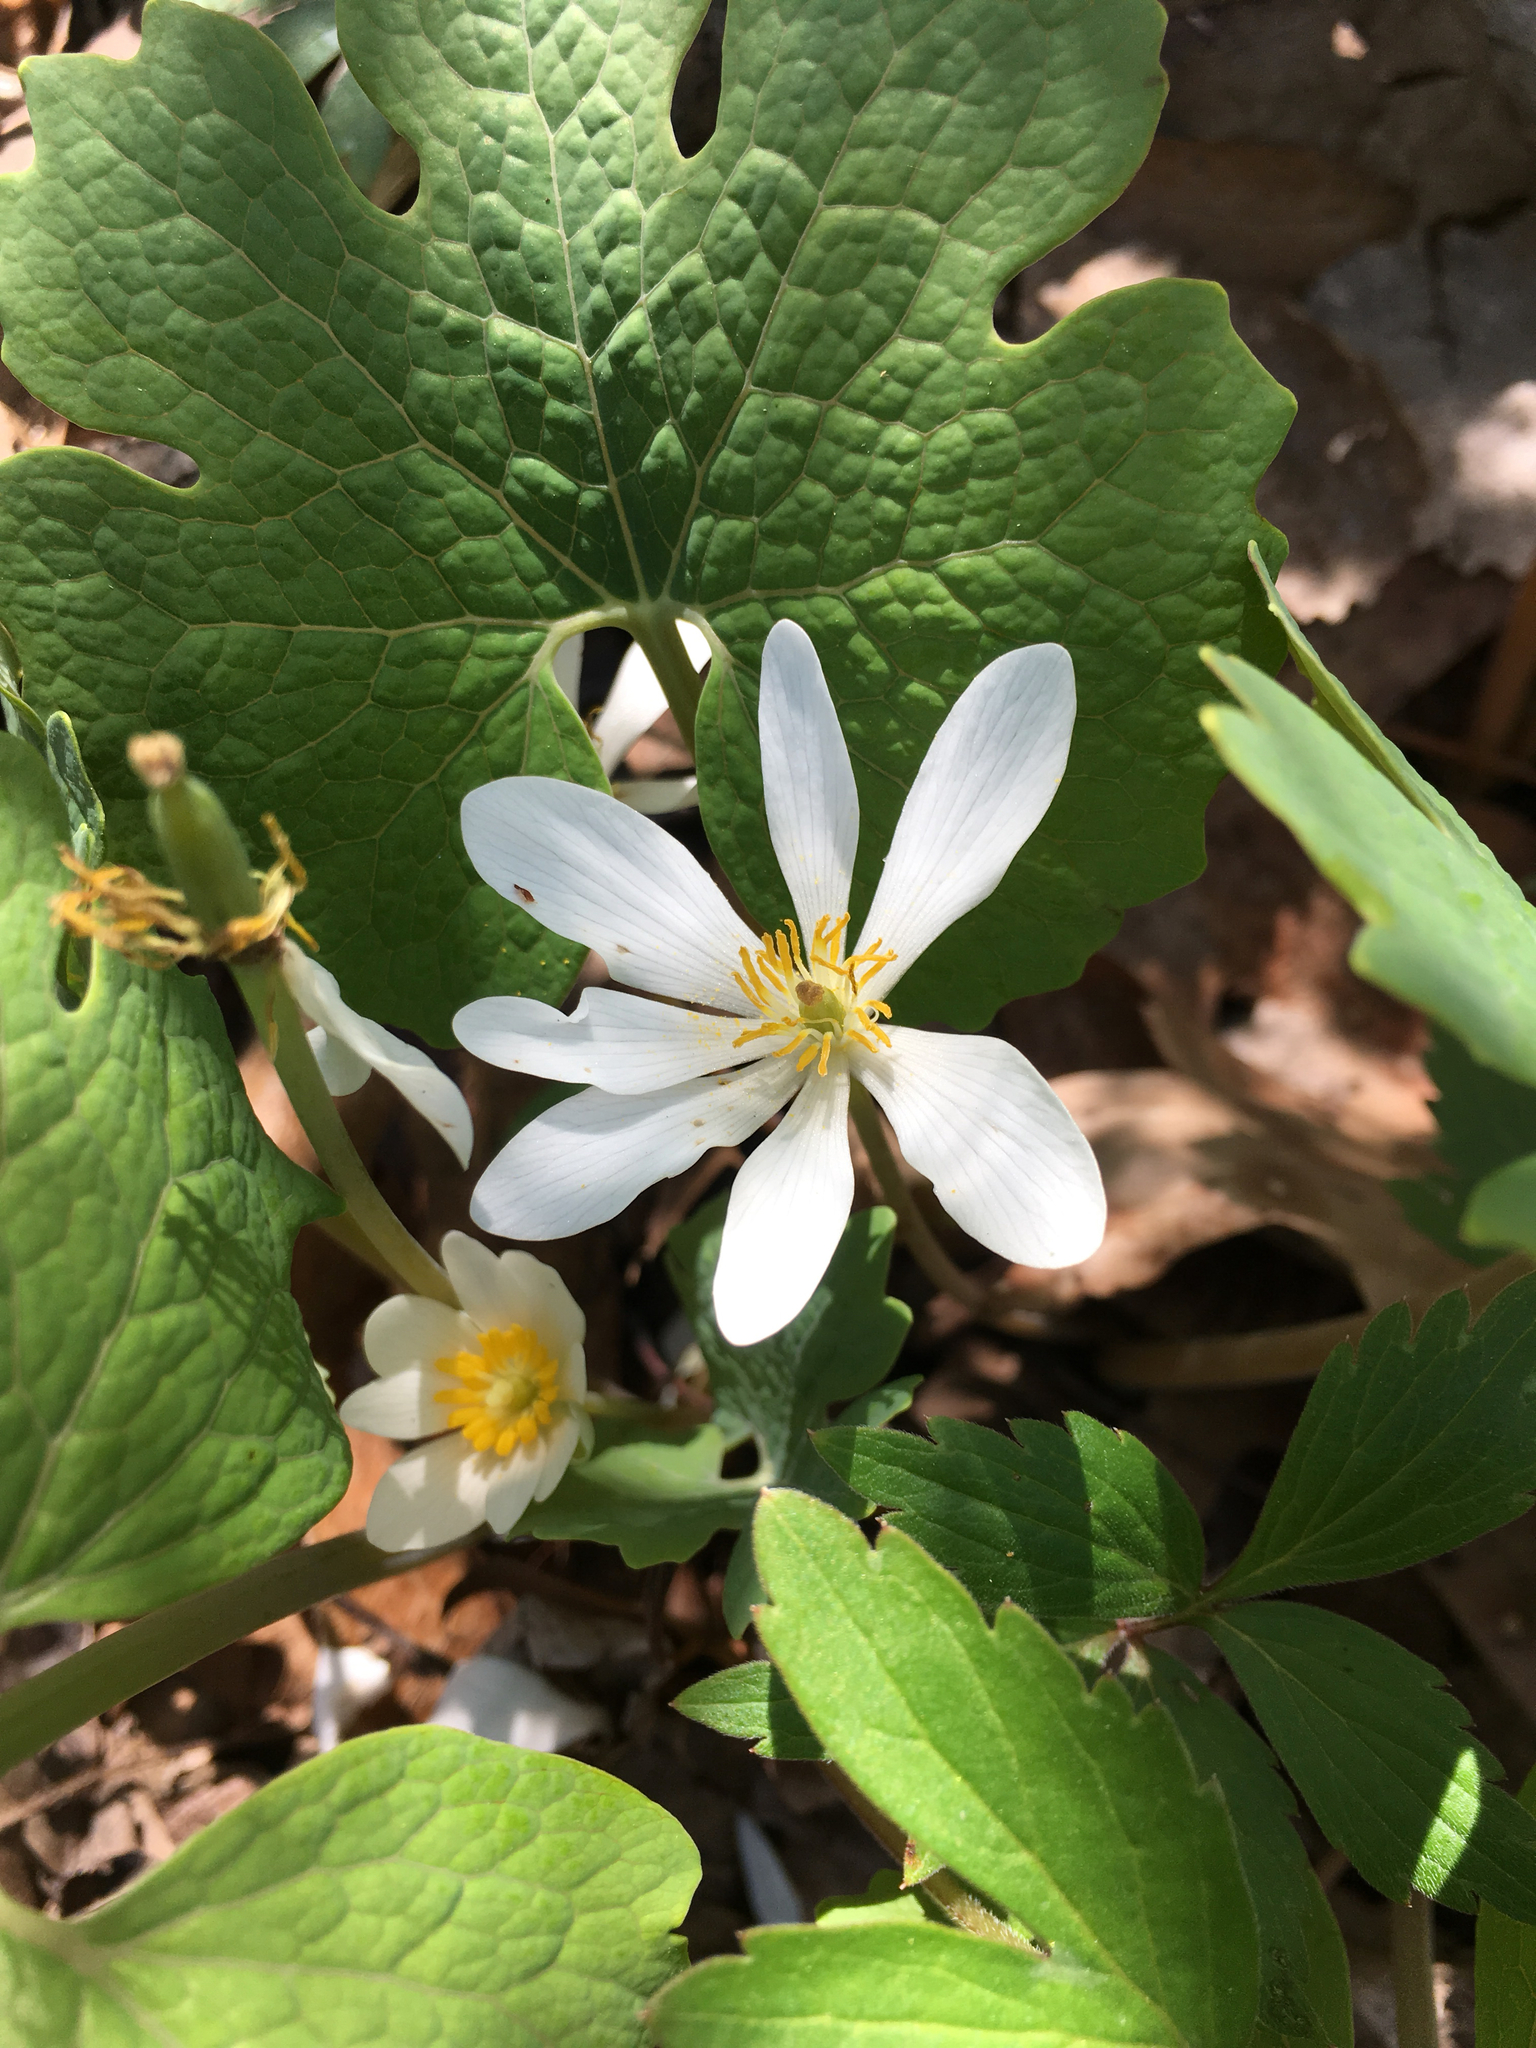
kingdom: Plantae
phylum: Tracheophyta
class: Magnoliopsida
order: Ranunculales
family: Papaveraceae
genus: Sanguinaria
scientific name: Sanguinaria canadensis
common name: Bloodroot
